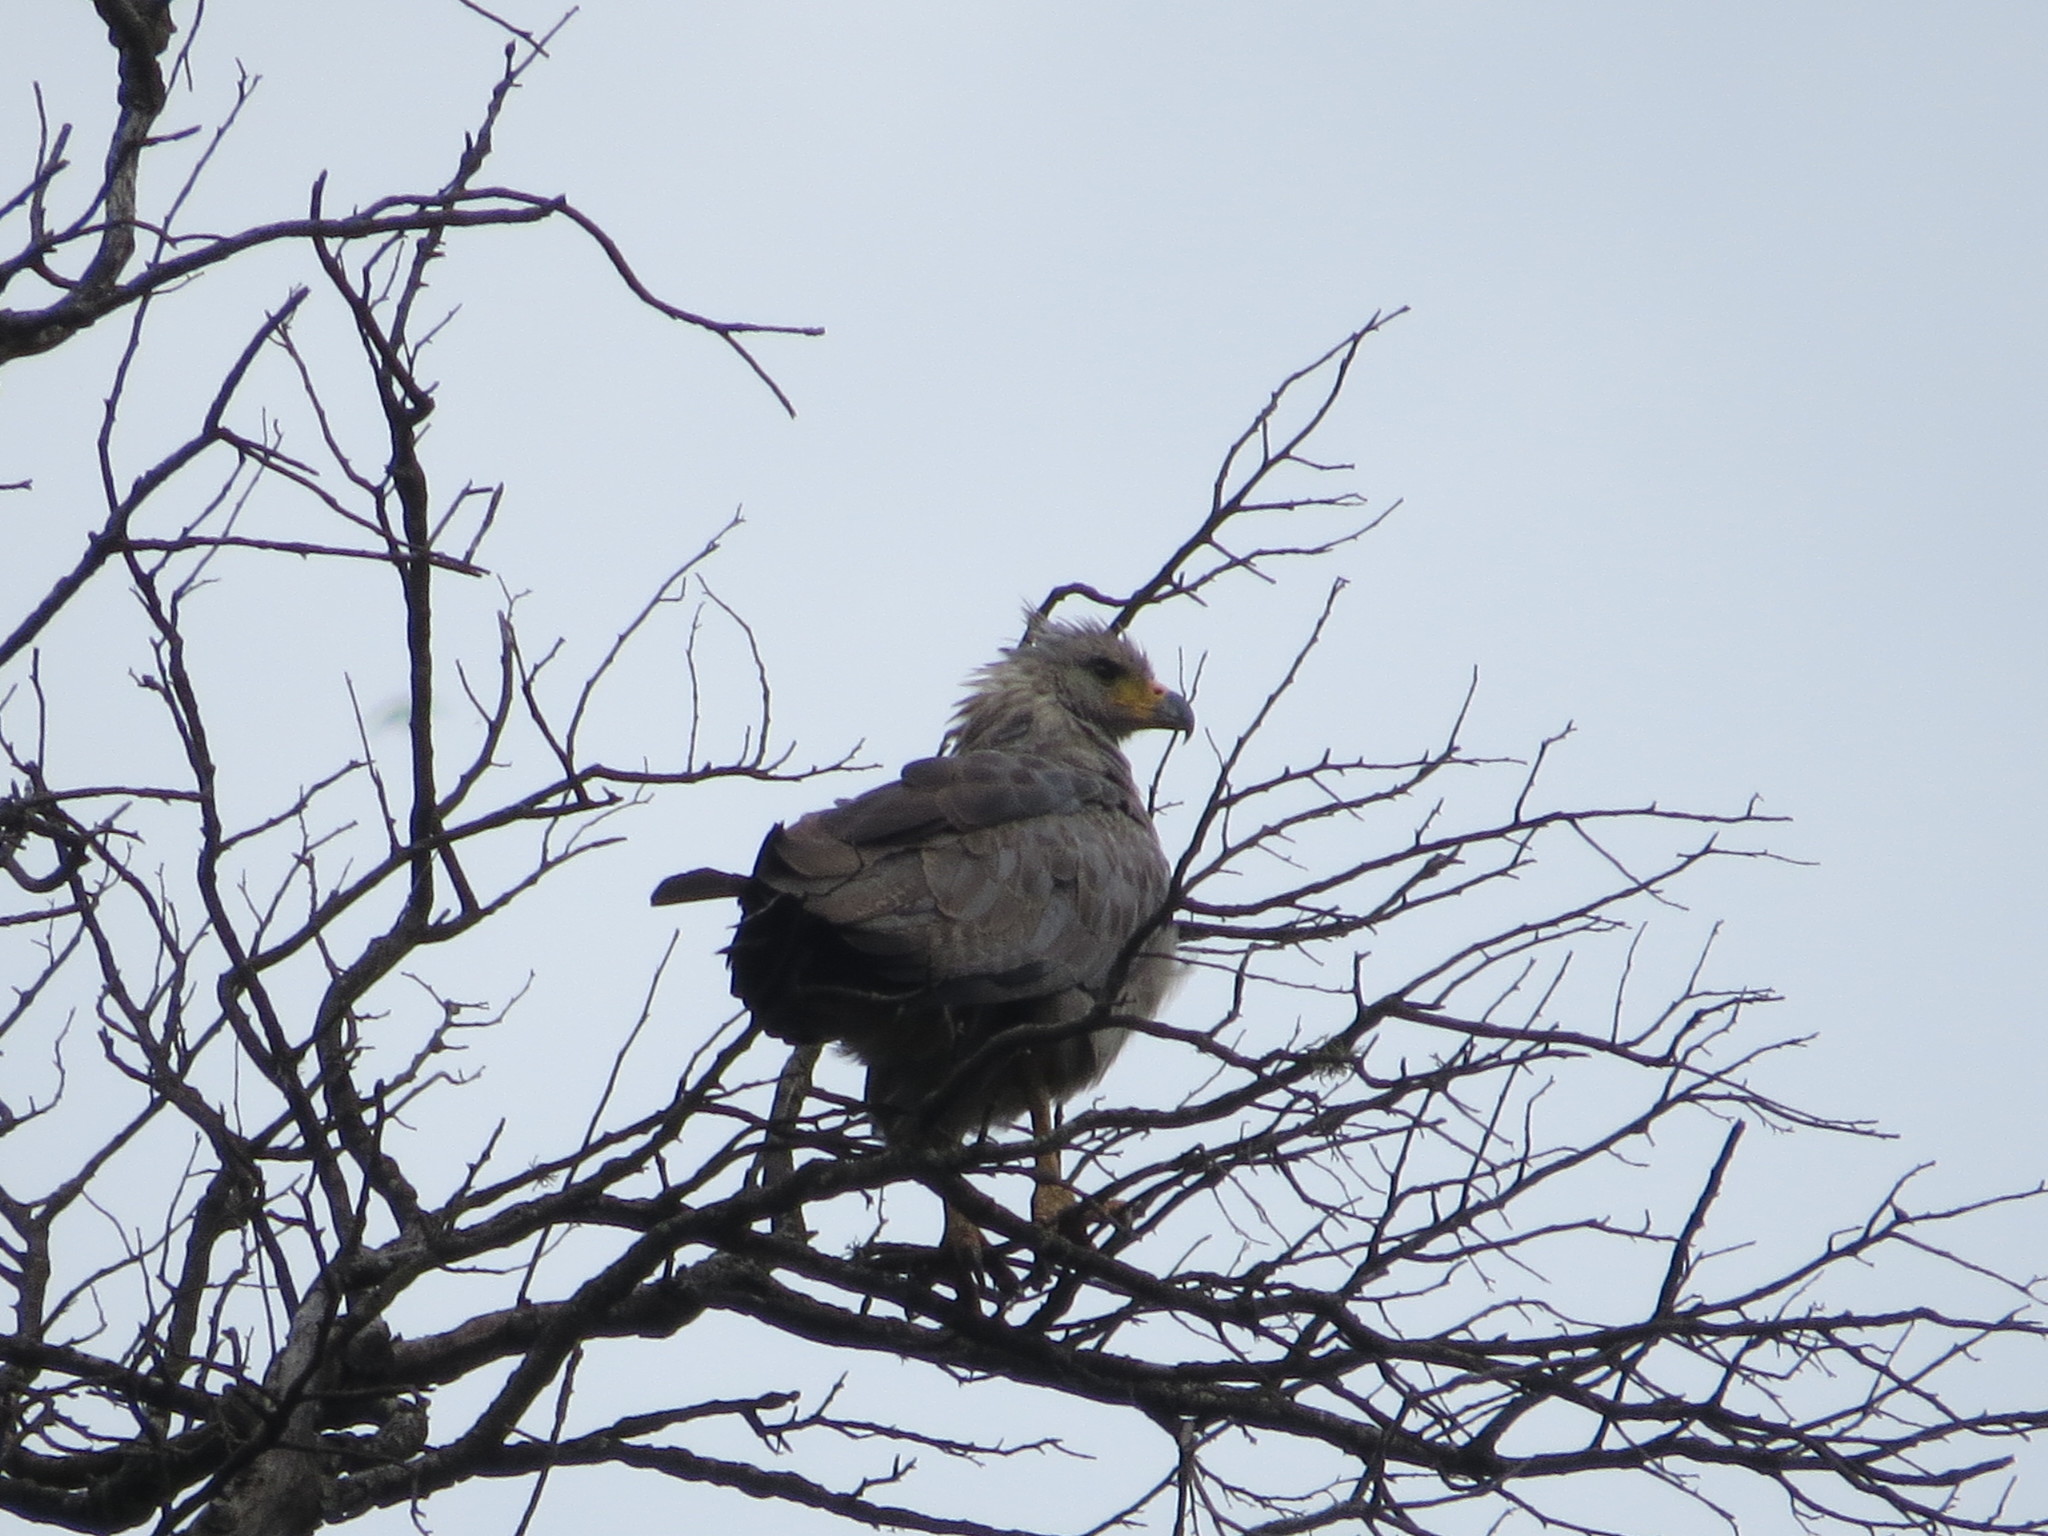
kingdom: Animalia
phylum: Chordata
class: Aves
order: Accipitriformes
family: Accipitridae
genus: Harpyhaliaetus
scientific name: Harpyhaliaetus coronatus
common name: Crowned solitary eagle
